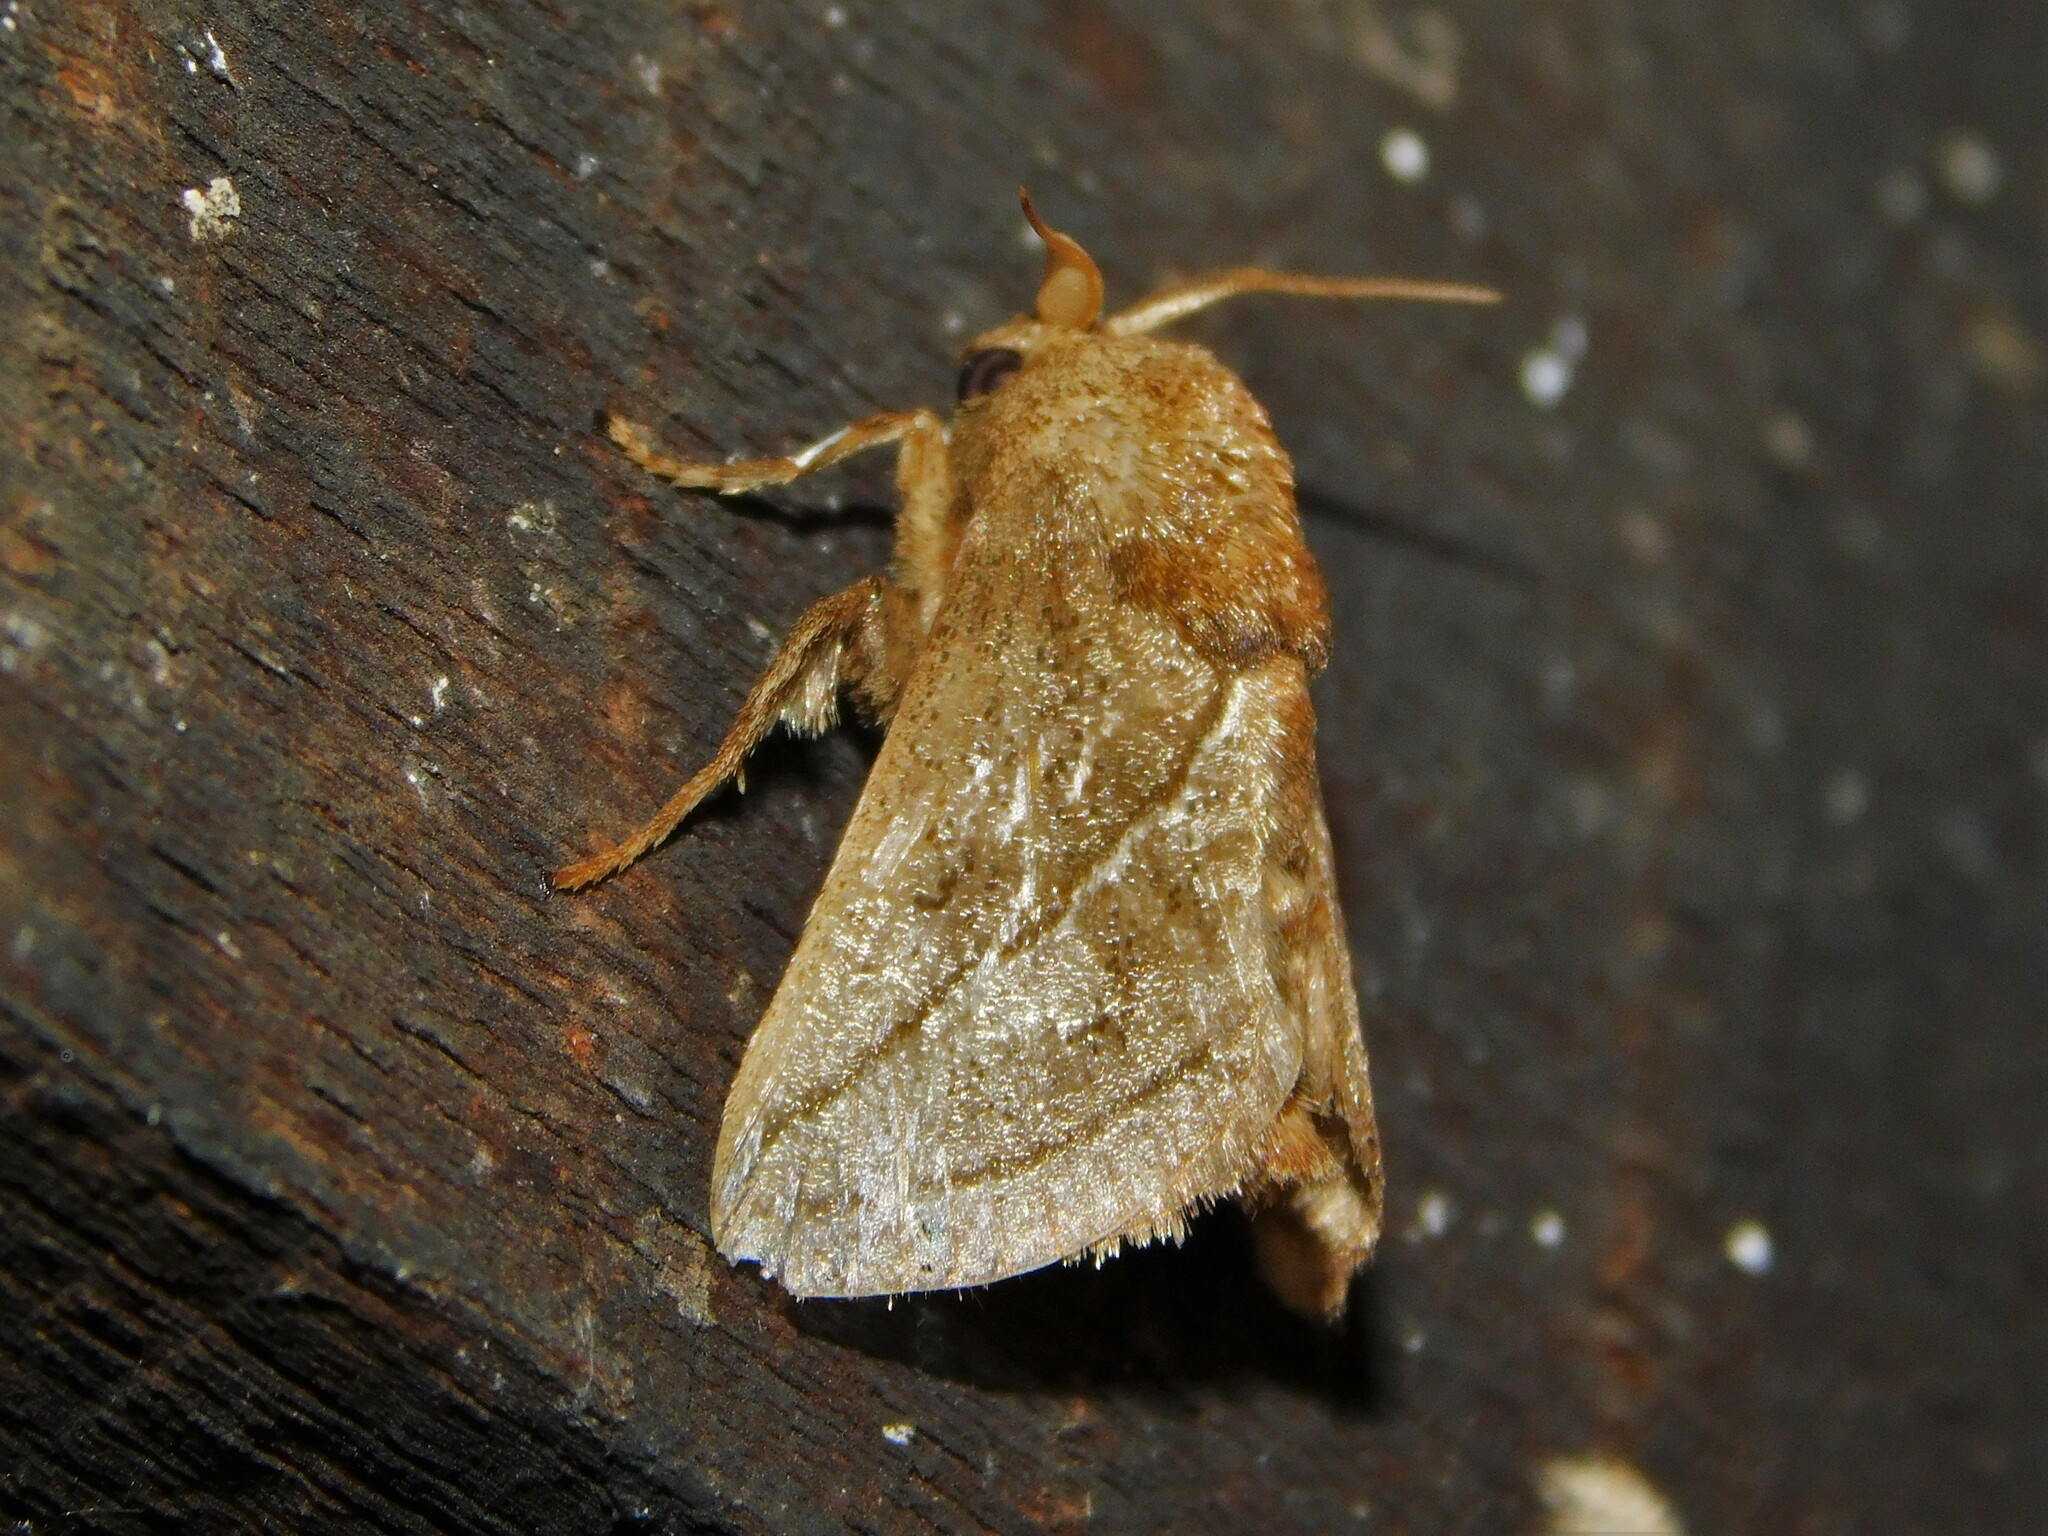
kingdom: Animalia
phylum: Arthropoda
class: Insecta
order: Lepidoptera
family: Limacodidae
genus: Neomocena
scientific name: Neomocena convergens
